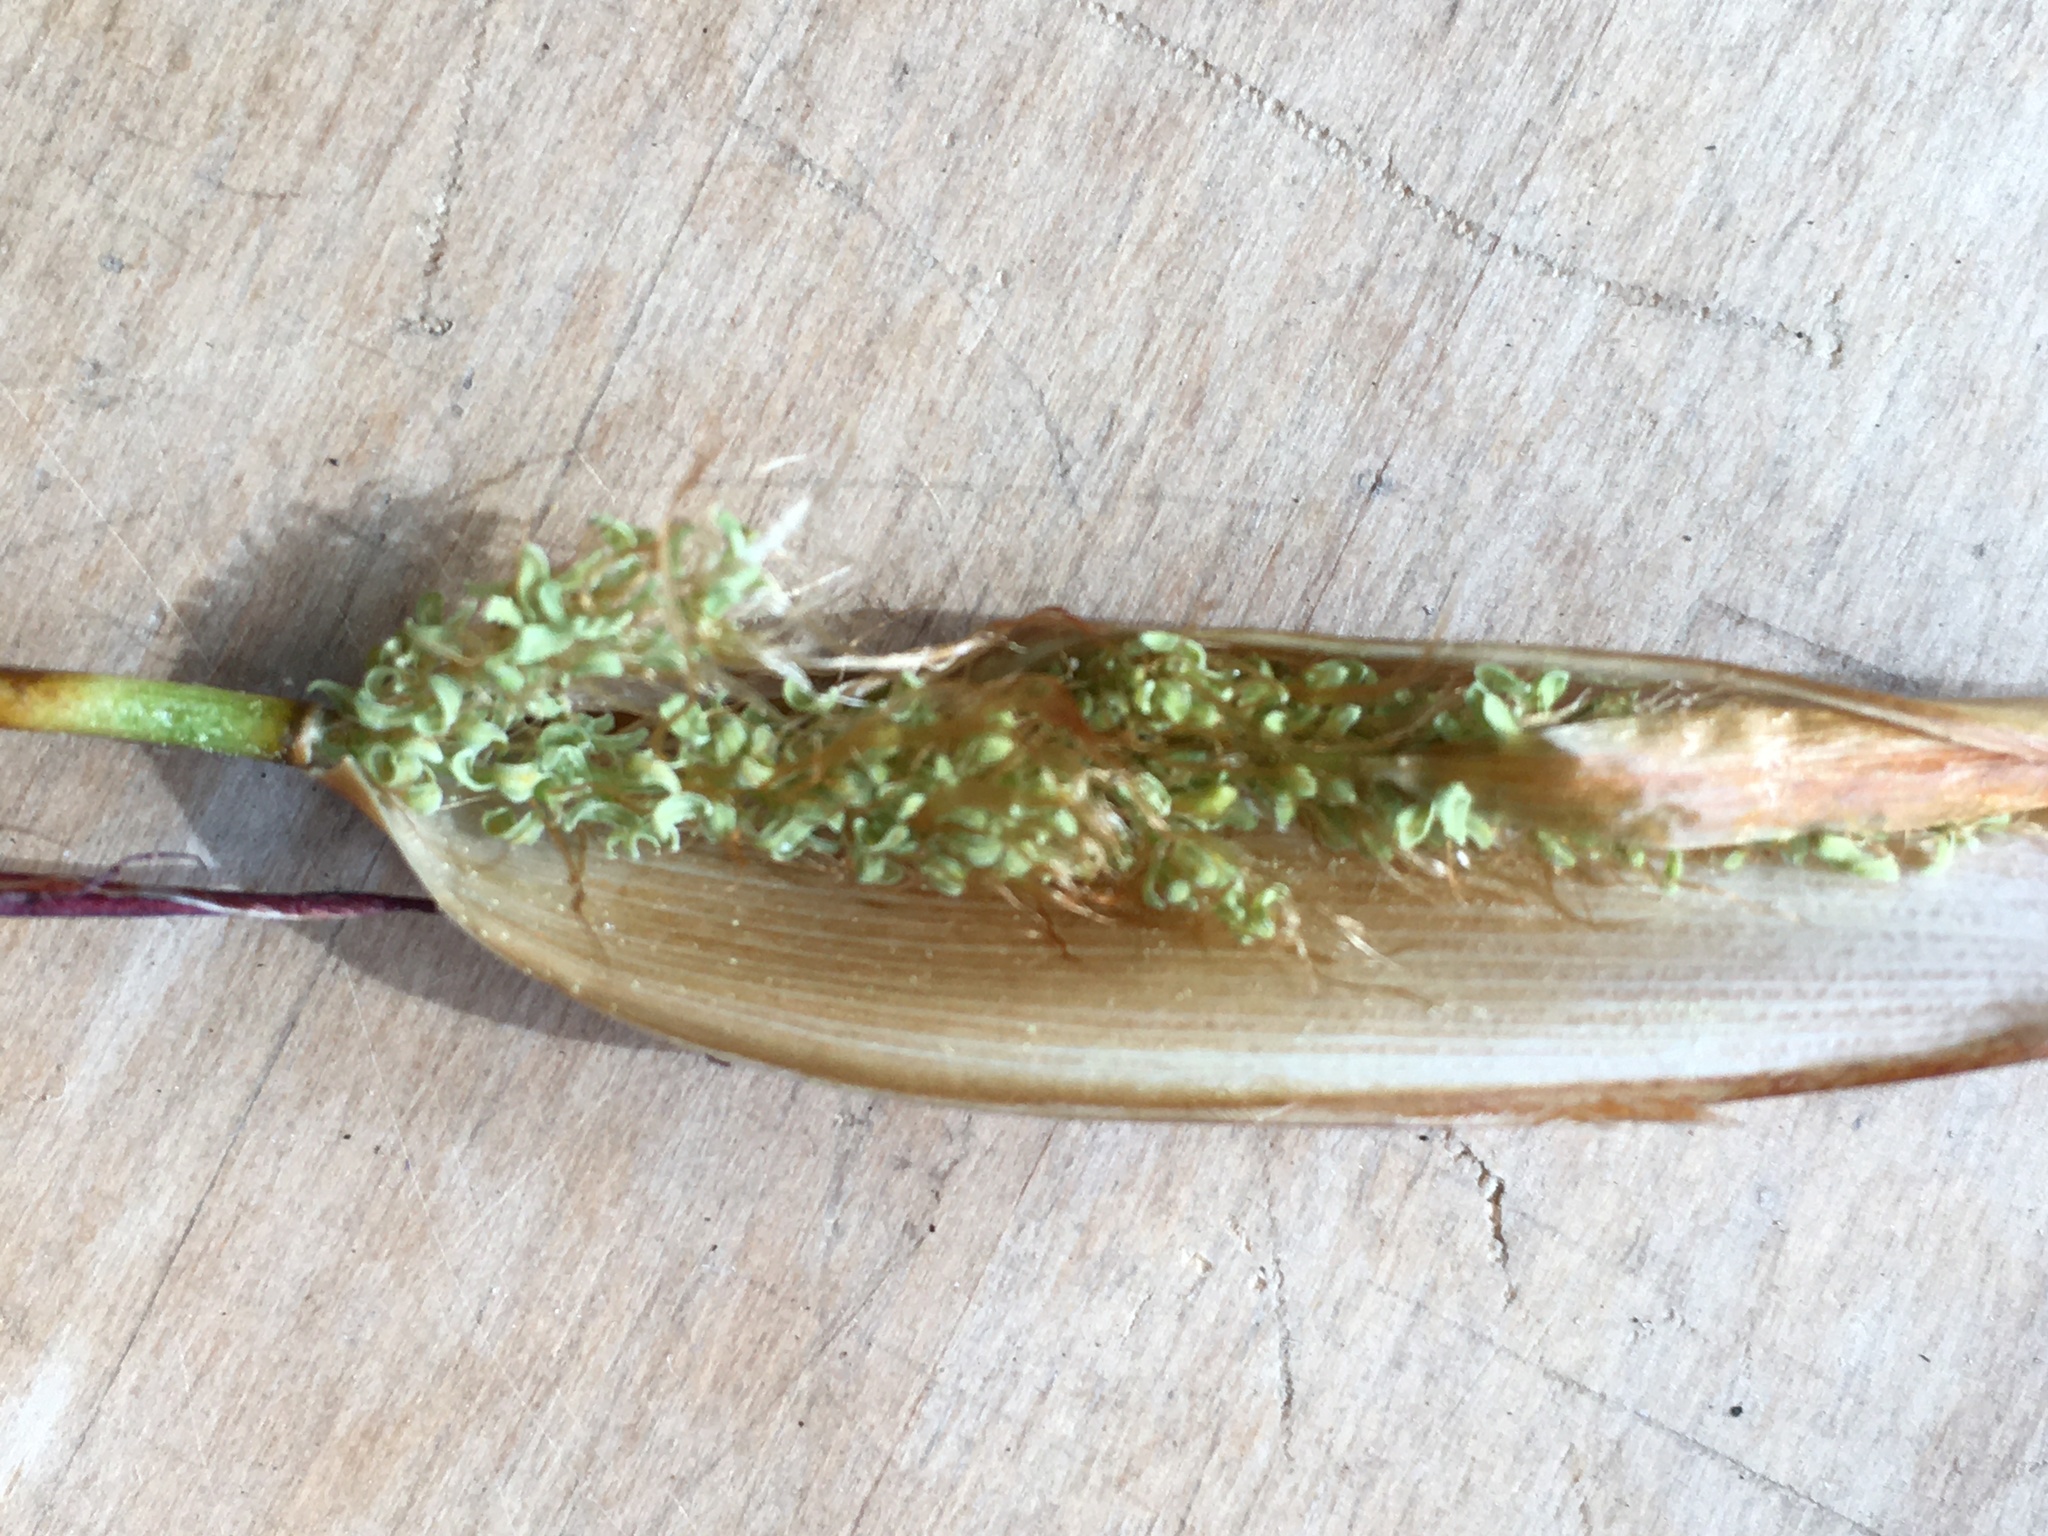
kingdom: Plantae
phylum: Tracheophyta
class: Liliopsida
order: Poales
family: Restionaceae
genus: Willdenowia
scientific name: Willdenowia glomerata
